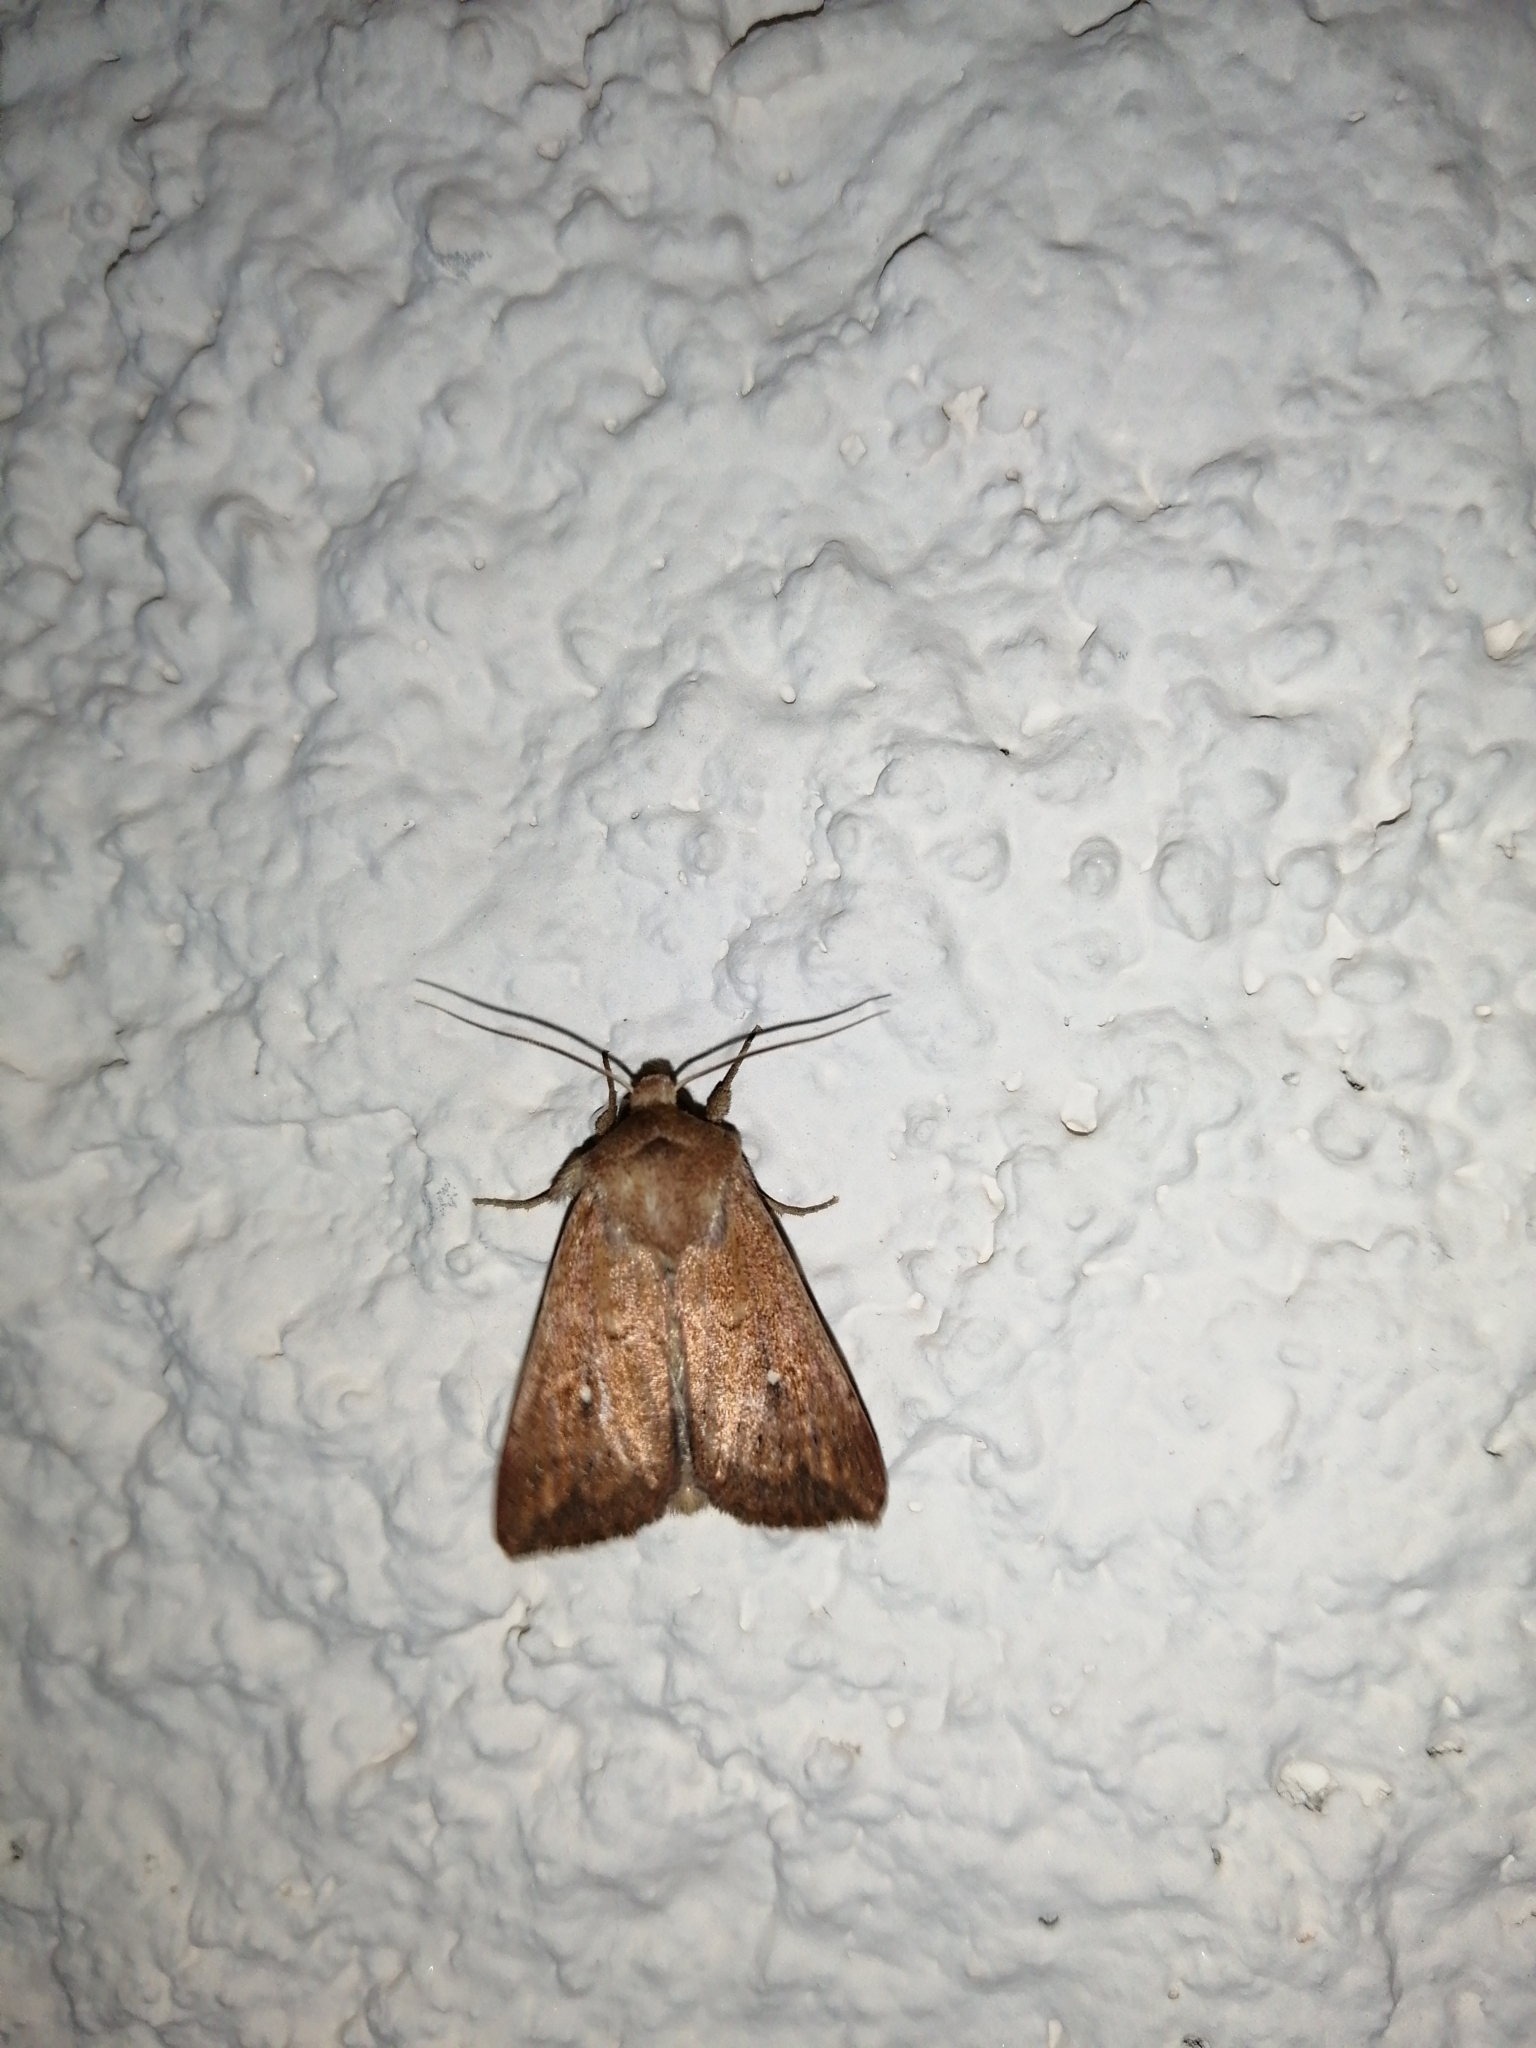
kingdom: Animalia
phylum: Arthropoda
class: Insecta
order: Lepidoptera
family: Noctuidae
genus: Mythimna
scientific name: Mythimna albipuncta
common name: White-point
